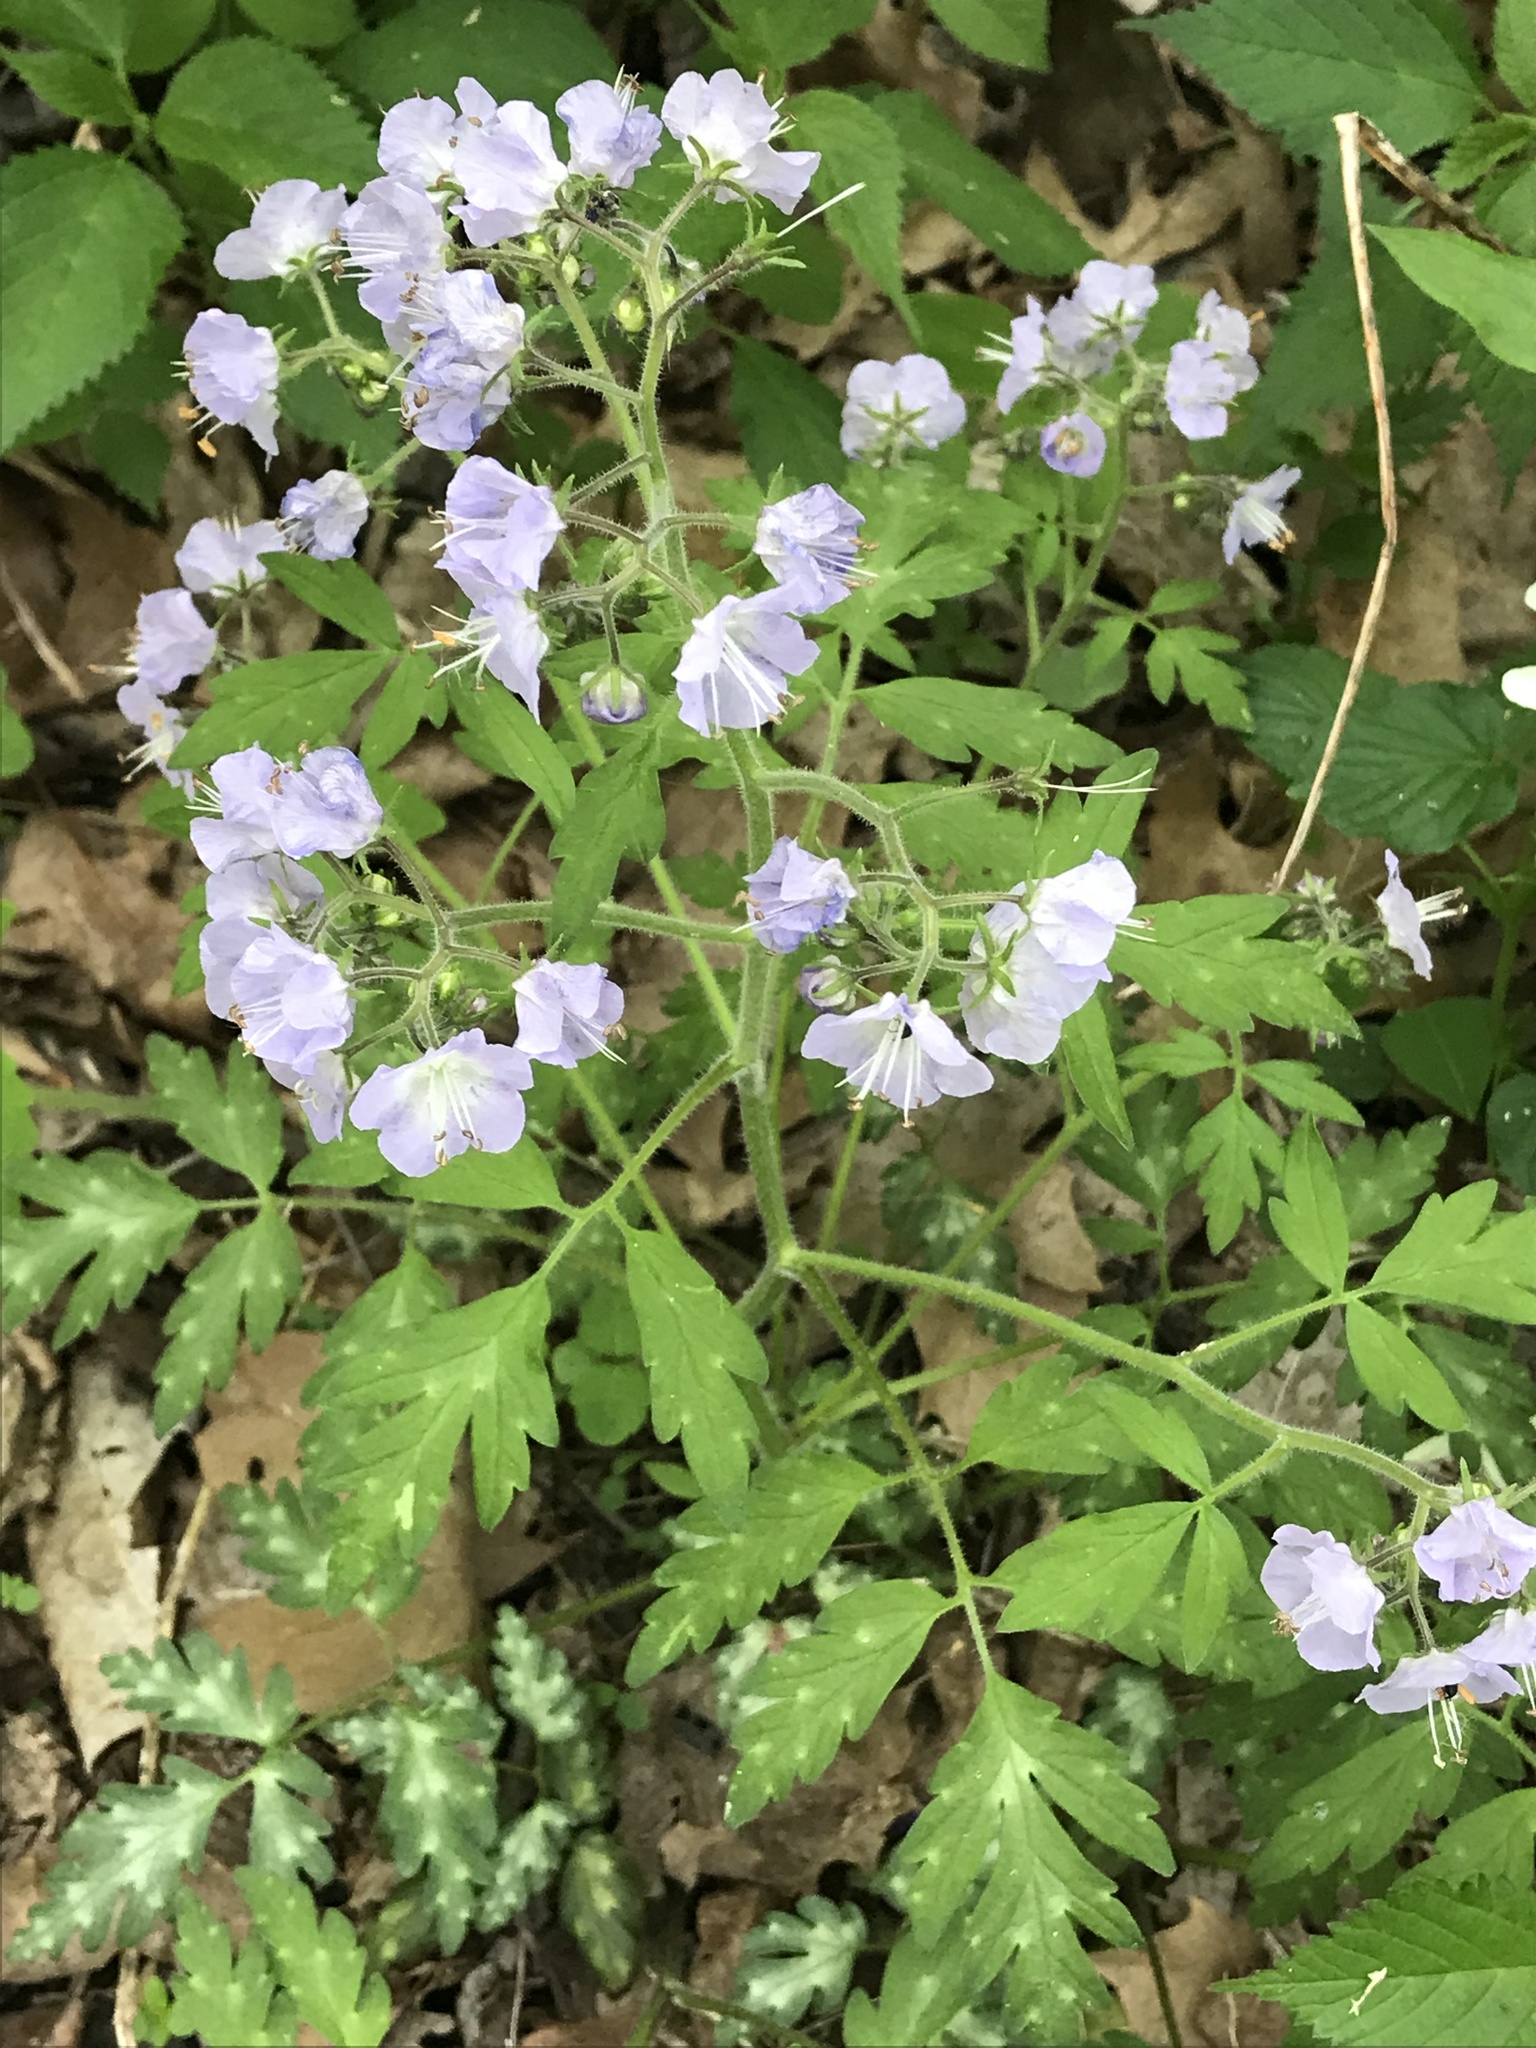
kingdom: Plantae
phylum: Tracheophyta
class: Magnoliopsida
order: Boraginales
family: Hydrophyllaceae
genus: Phacelia
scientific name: Phacelia bipinnatifida
